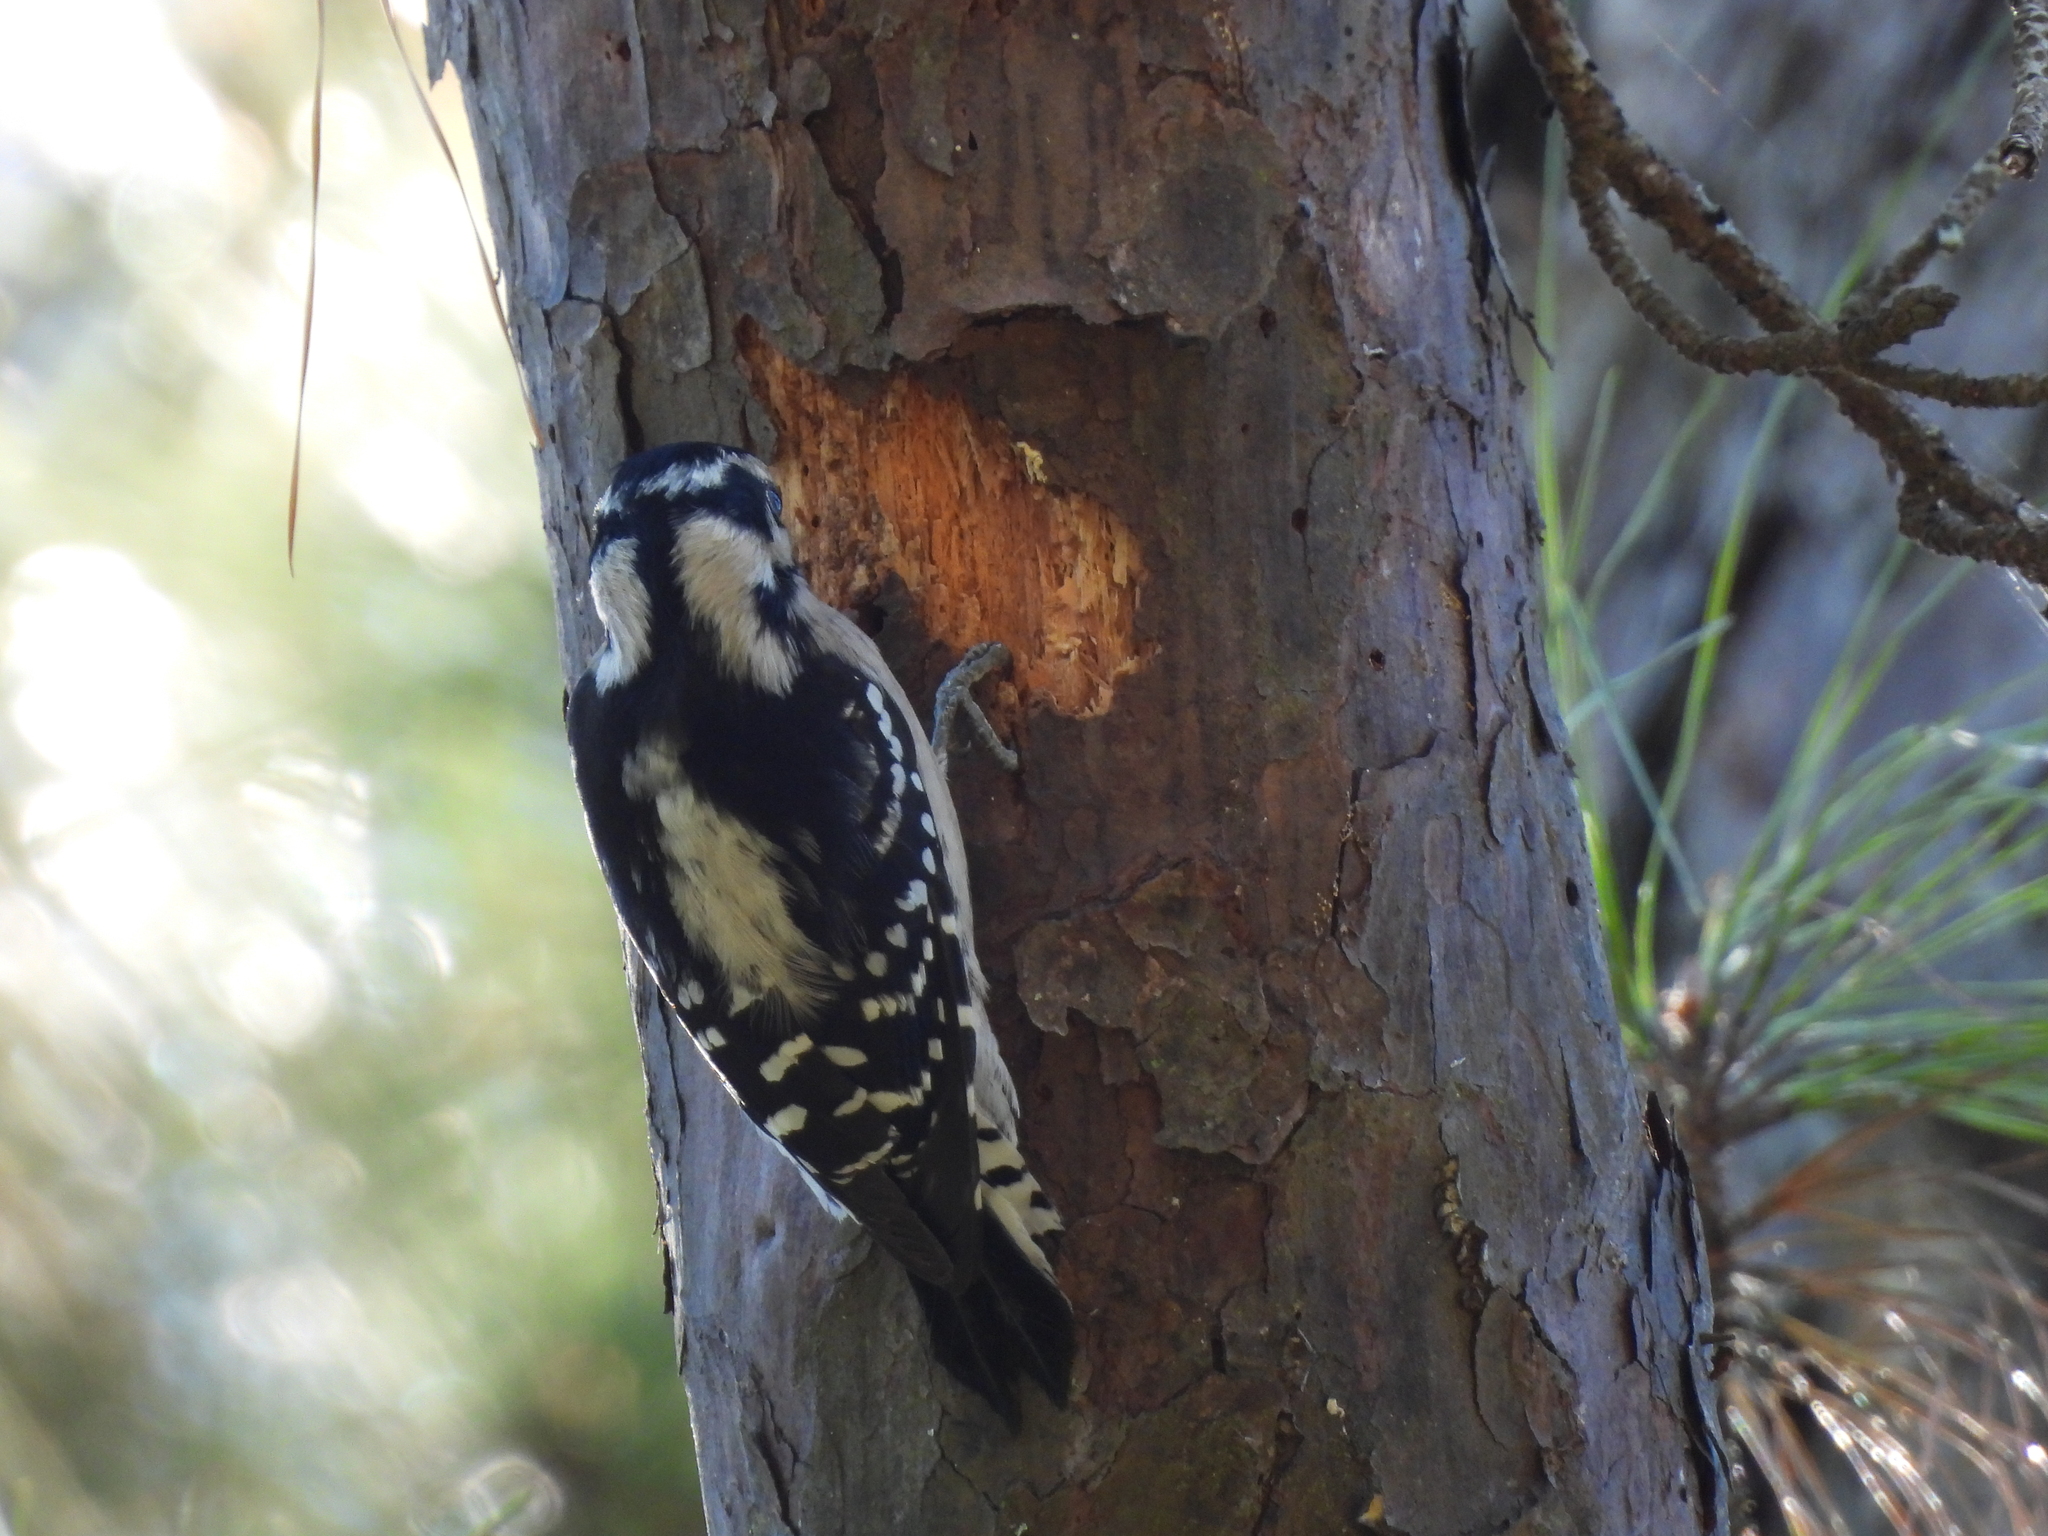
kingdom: Animalia
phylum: Chordata
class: Aves
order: Piciformes
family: Picidae
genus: Dryobates
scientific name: Dryobates pubescens
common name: Downy woodpecker
